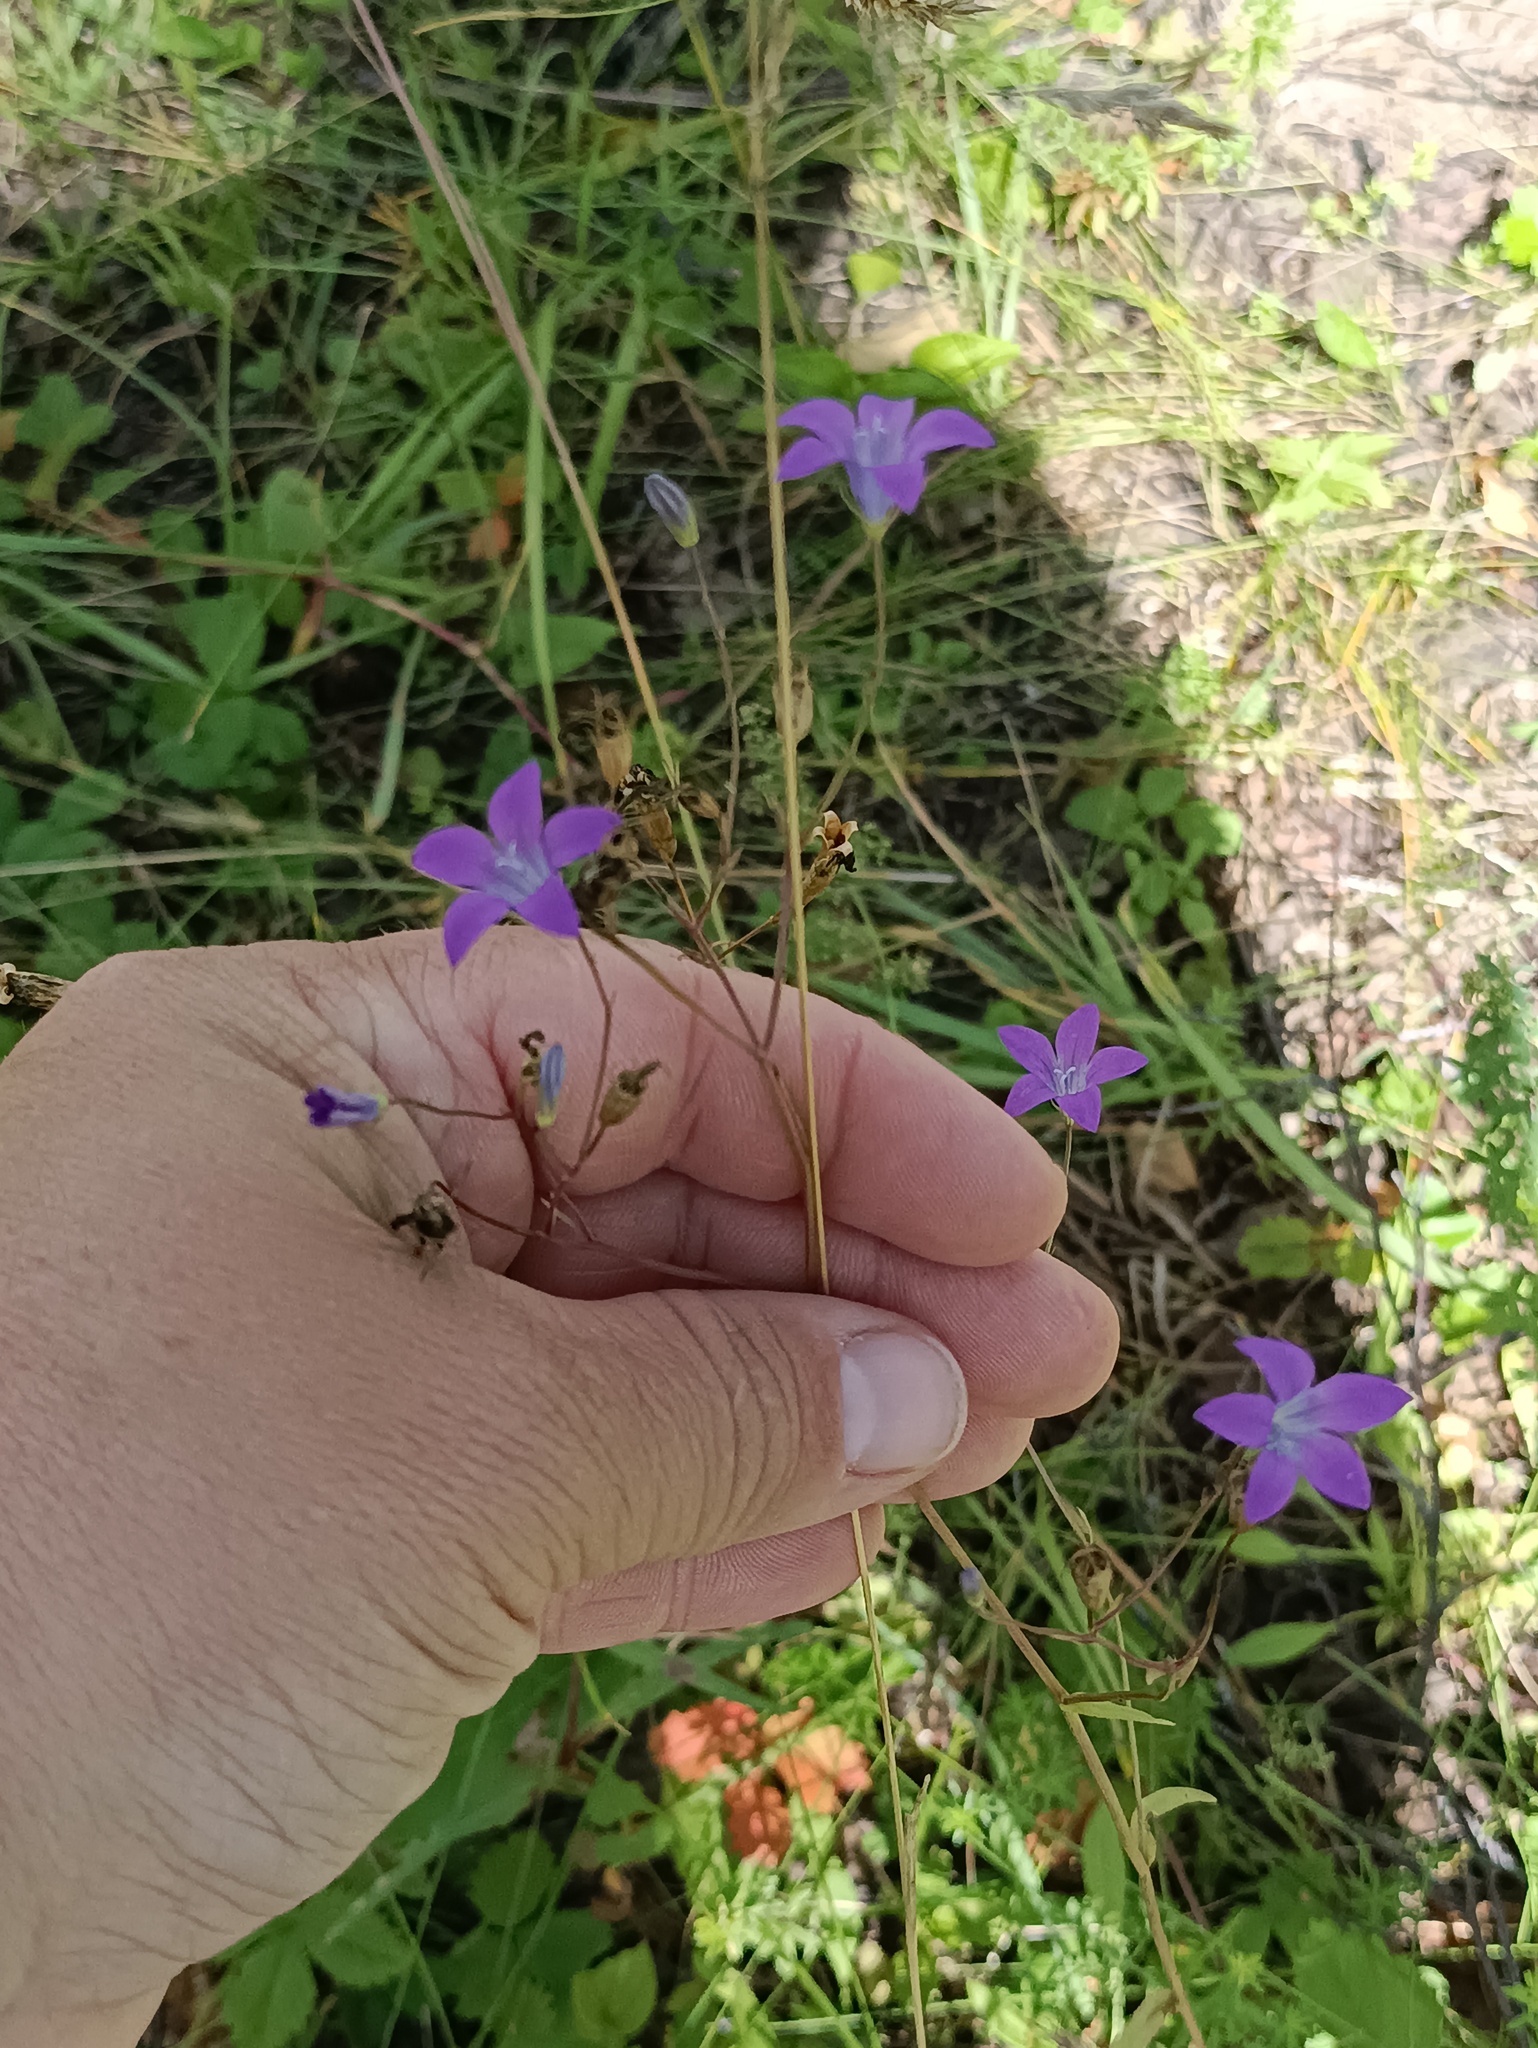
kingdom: Plantae
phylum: Tracheophyta
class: Magnoliopsida
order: Asterales
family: Campanulaceae
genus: Campanula
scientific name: Campanula patula
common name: Spreading bellflower
